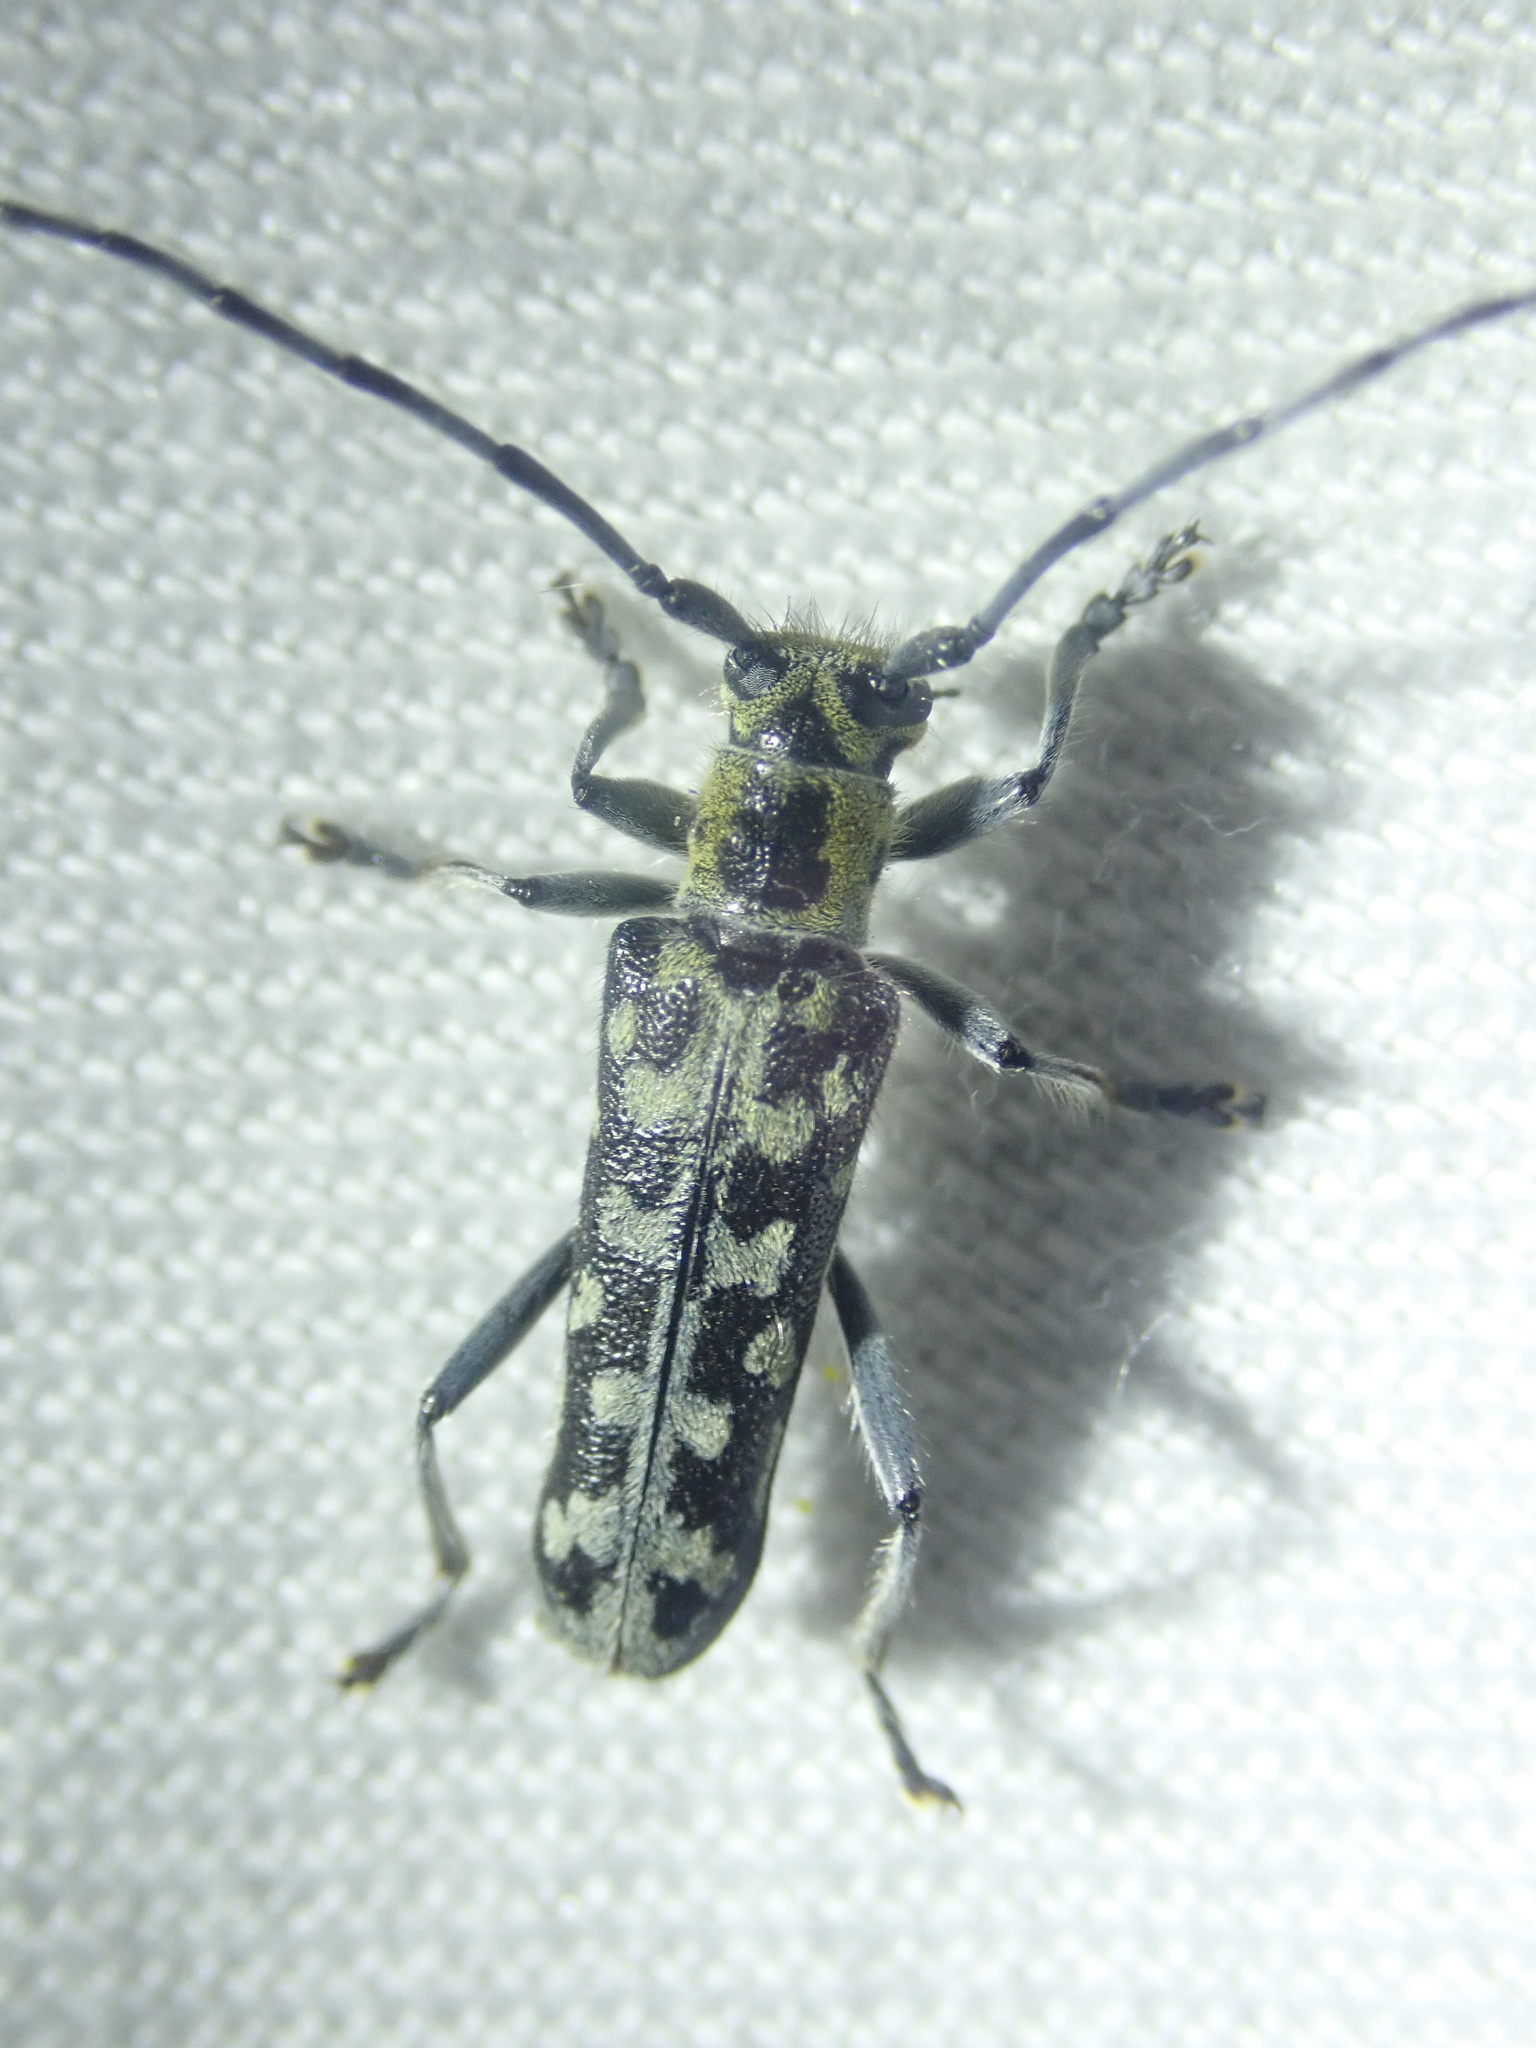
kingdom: Animalia
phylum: Arthropoda
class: Insecta
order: Coleoptera
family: Cerambycidae
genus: Saperda
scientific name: Saperda scalaris
